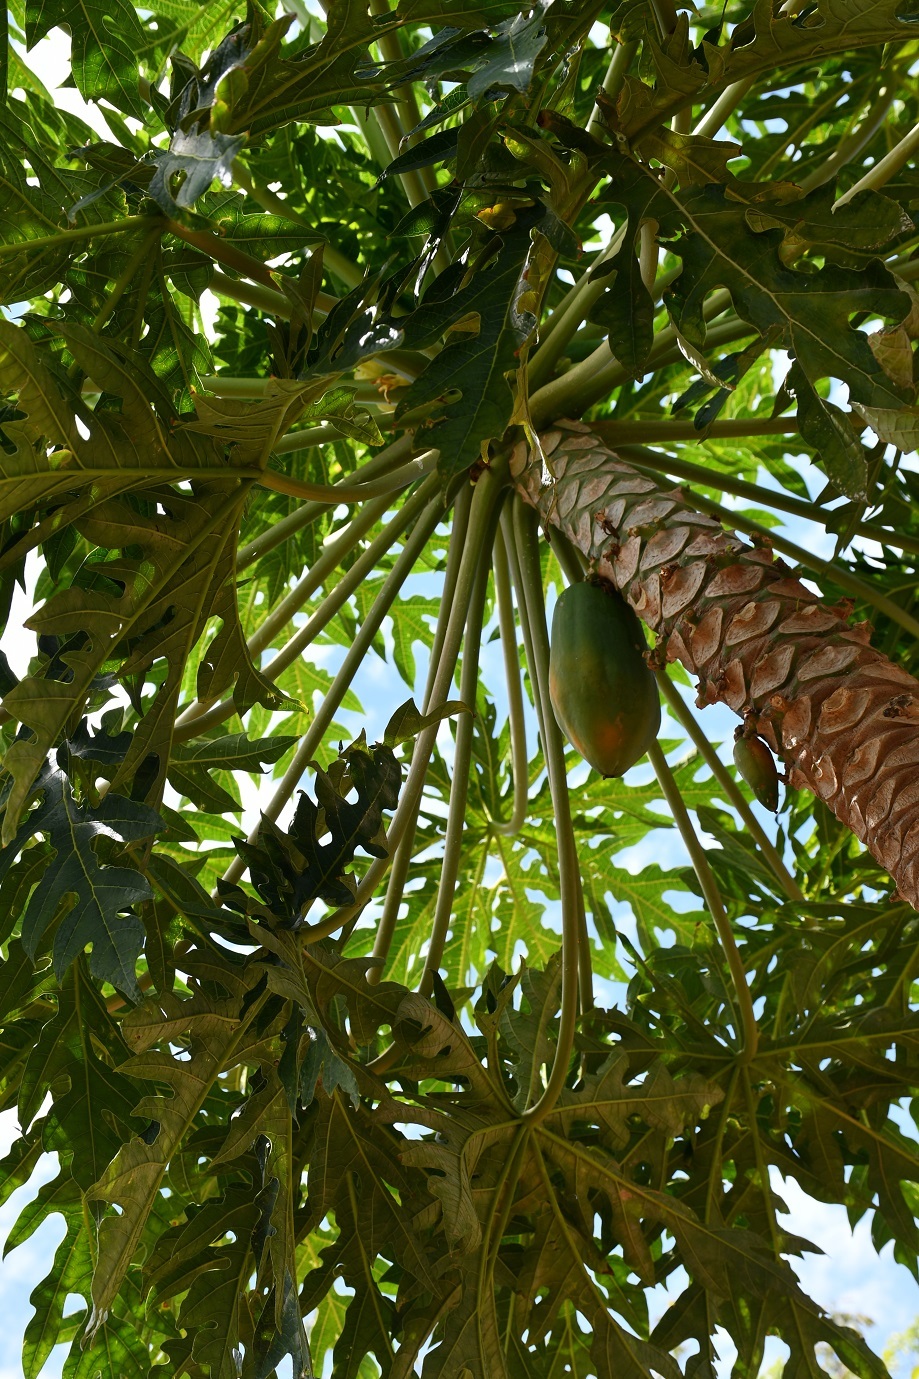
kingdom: Plantae
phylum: Tracheophyta
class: Magnoliopsida
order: Brassicales
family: Caricaceae
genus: Carica
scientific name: Carica papaya
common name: Papaya
